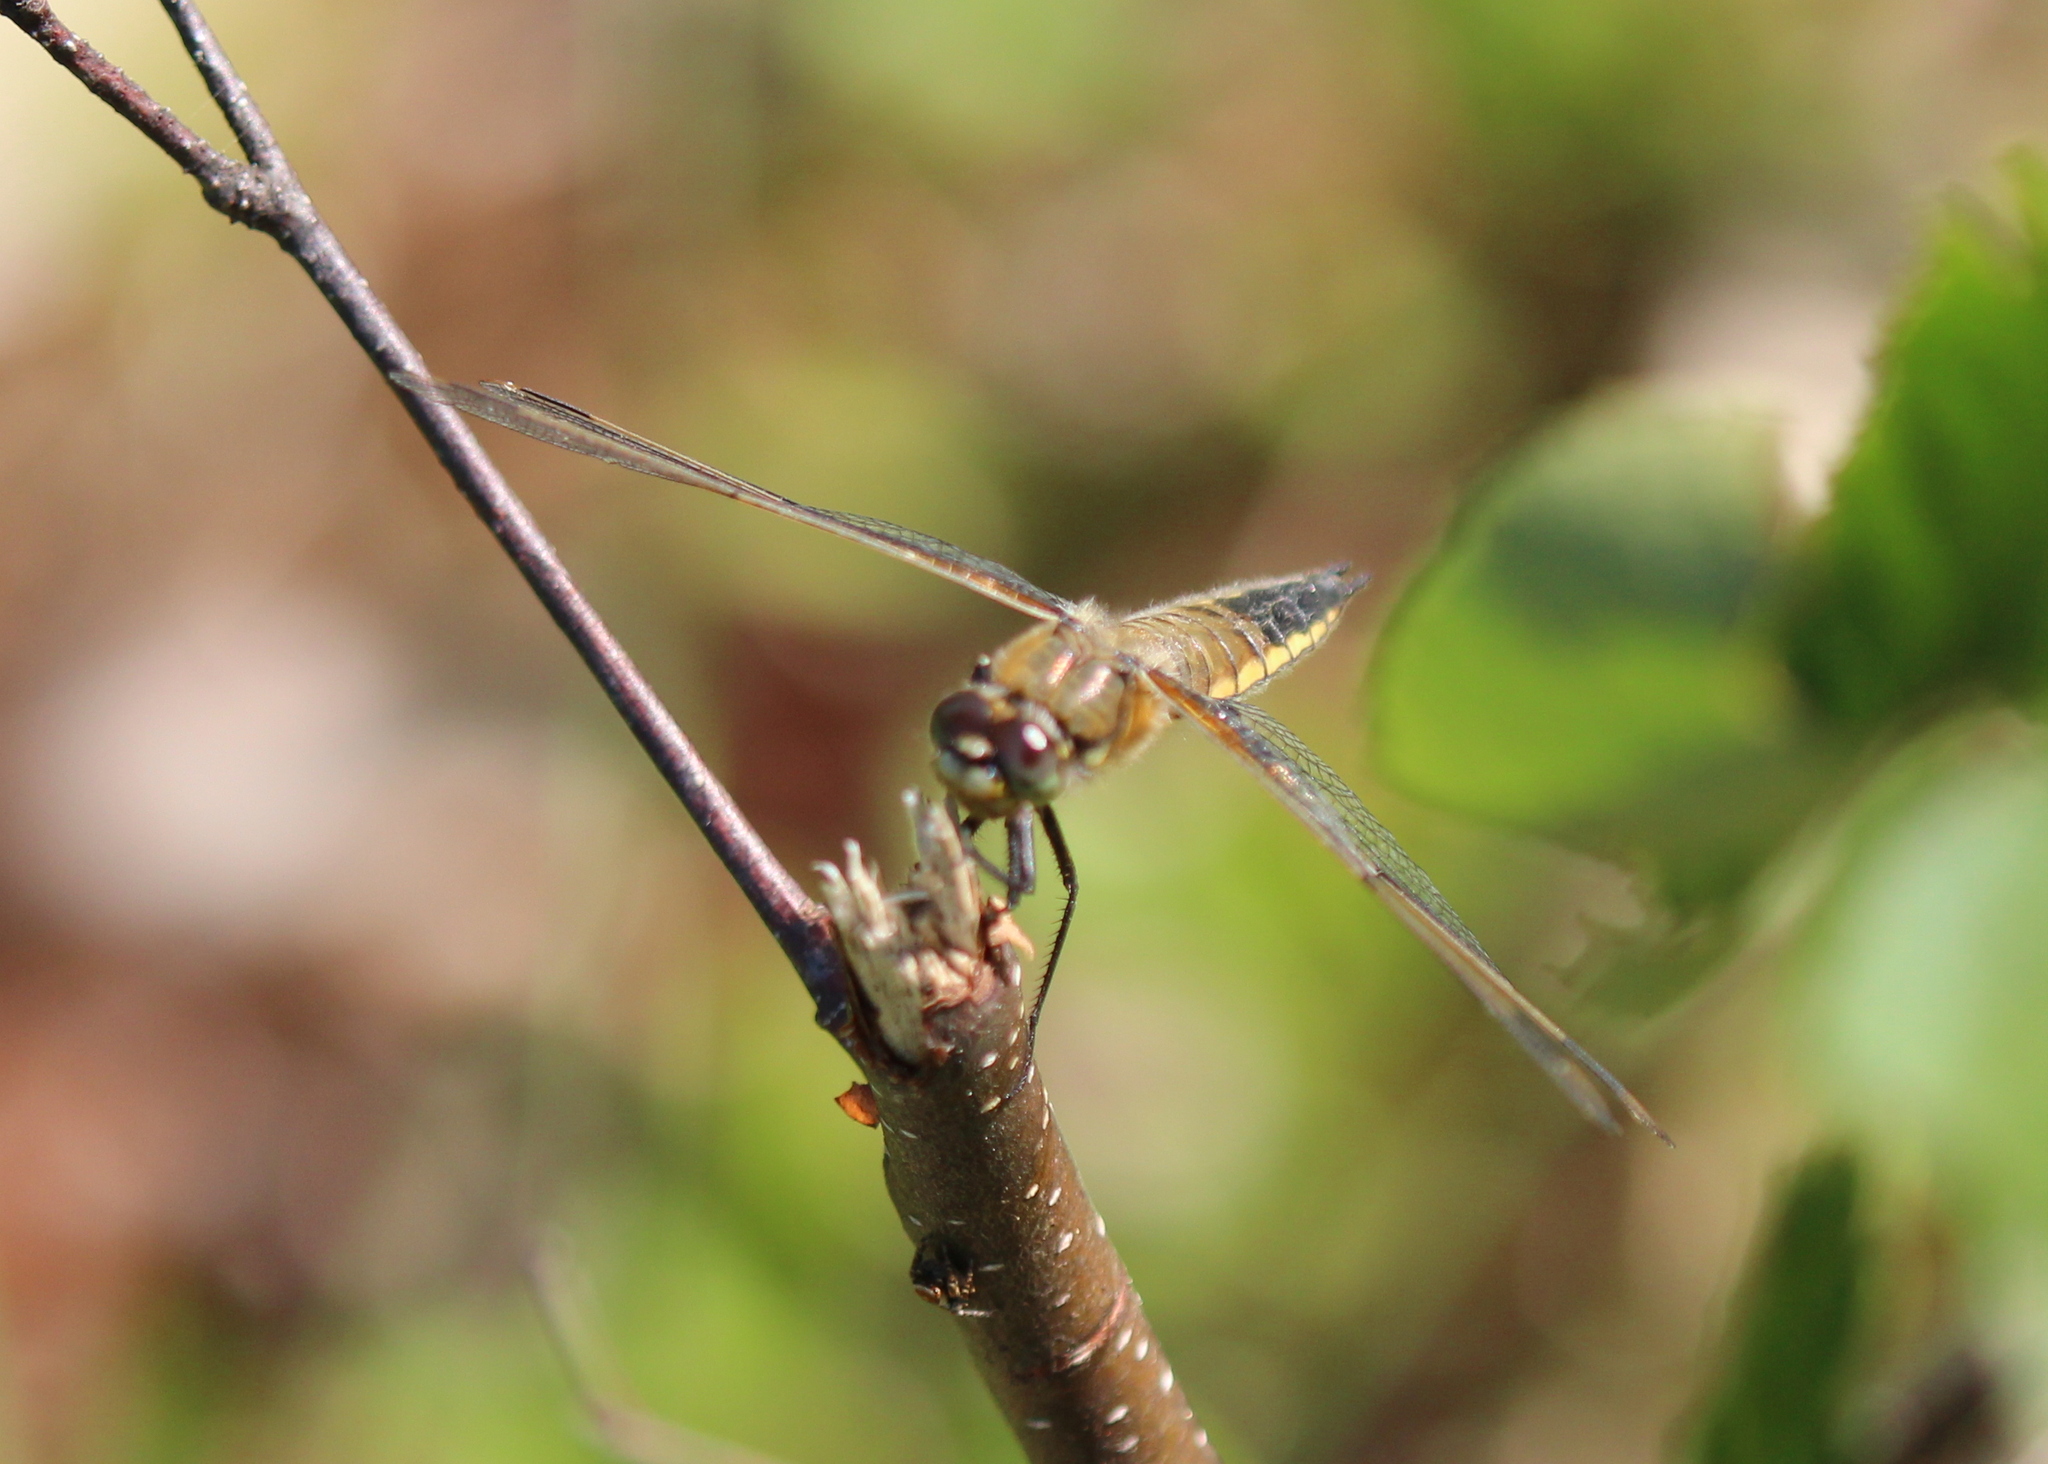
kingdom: Animalia
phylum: Arthropoda
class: Insecta
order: Odonata
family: Libellulidae
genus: Libellula
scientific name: Libellula quadrimaculata
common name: Four-spotted chaser
